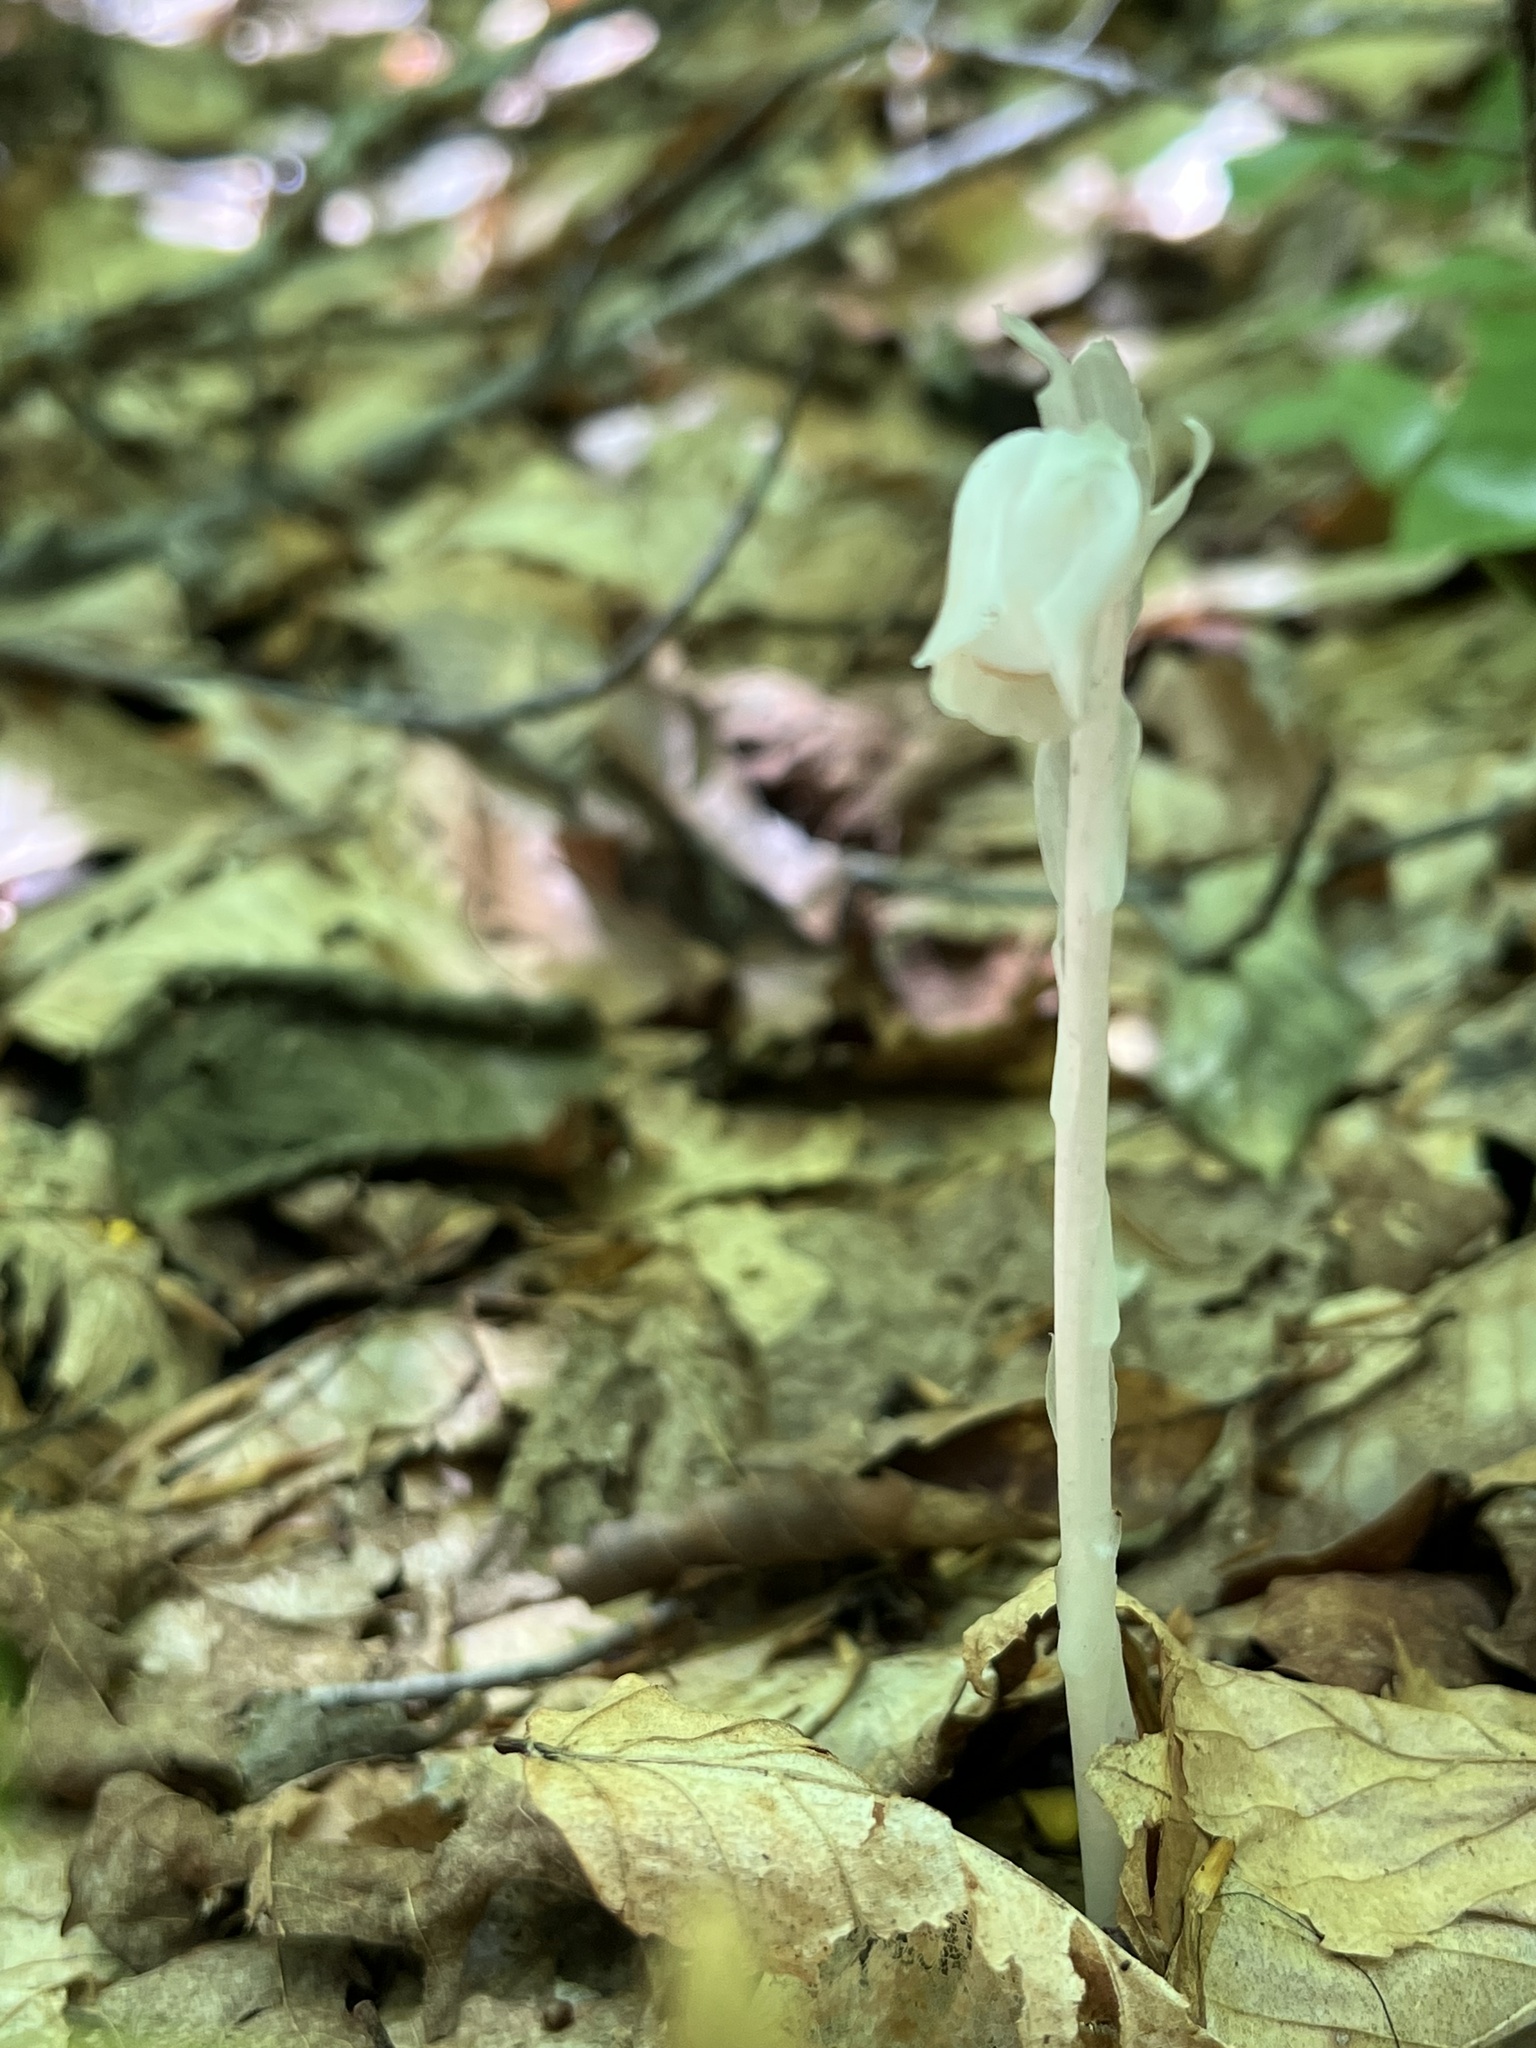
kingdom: Plantae
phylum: Tracheophyta
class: Magnoliopsida
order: Ericales
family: Ericaceae
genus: Monotropa
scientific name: Monotropa uniflora
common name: Convulsion root
